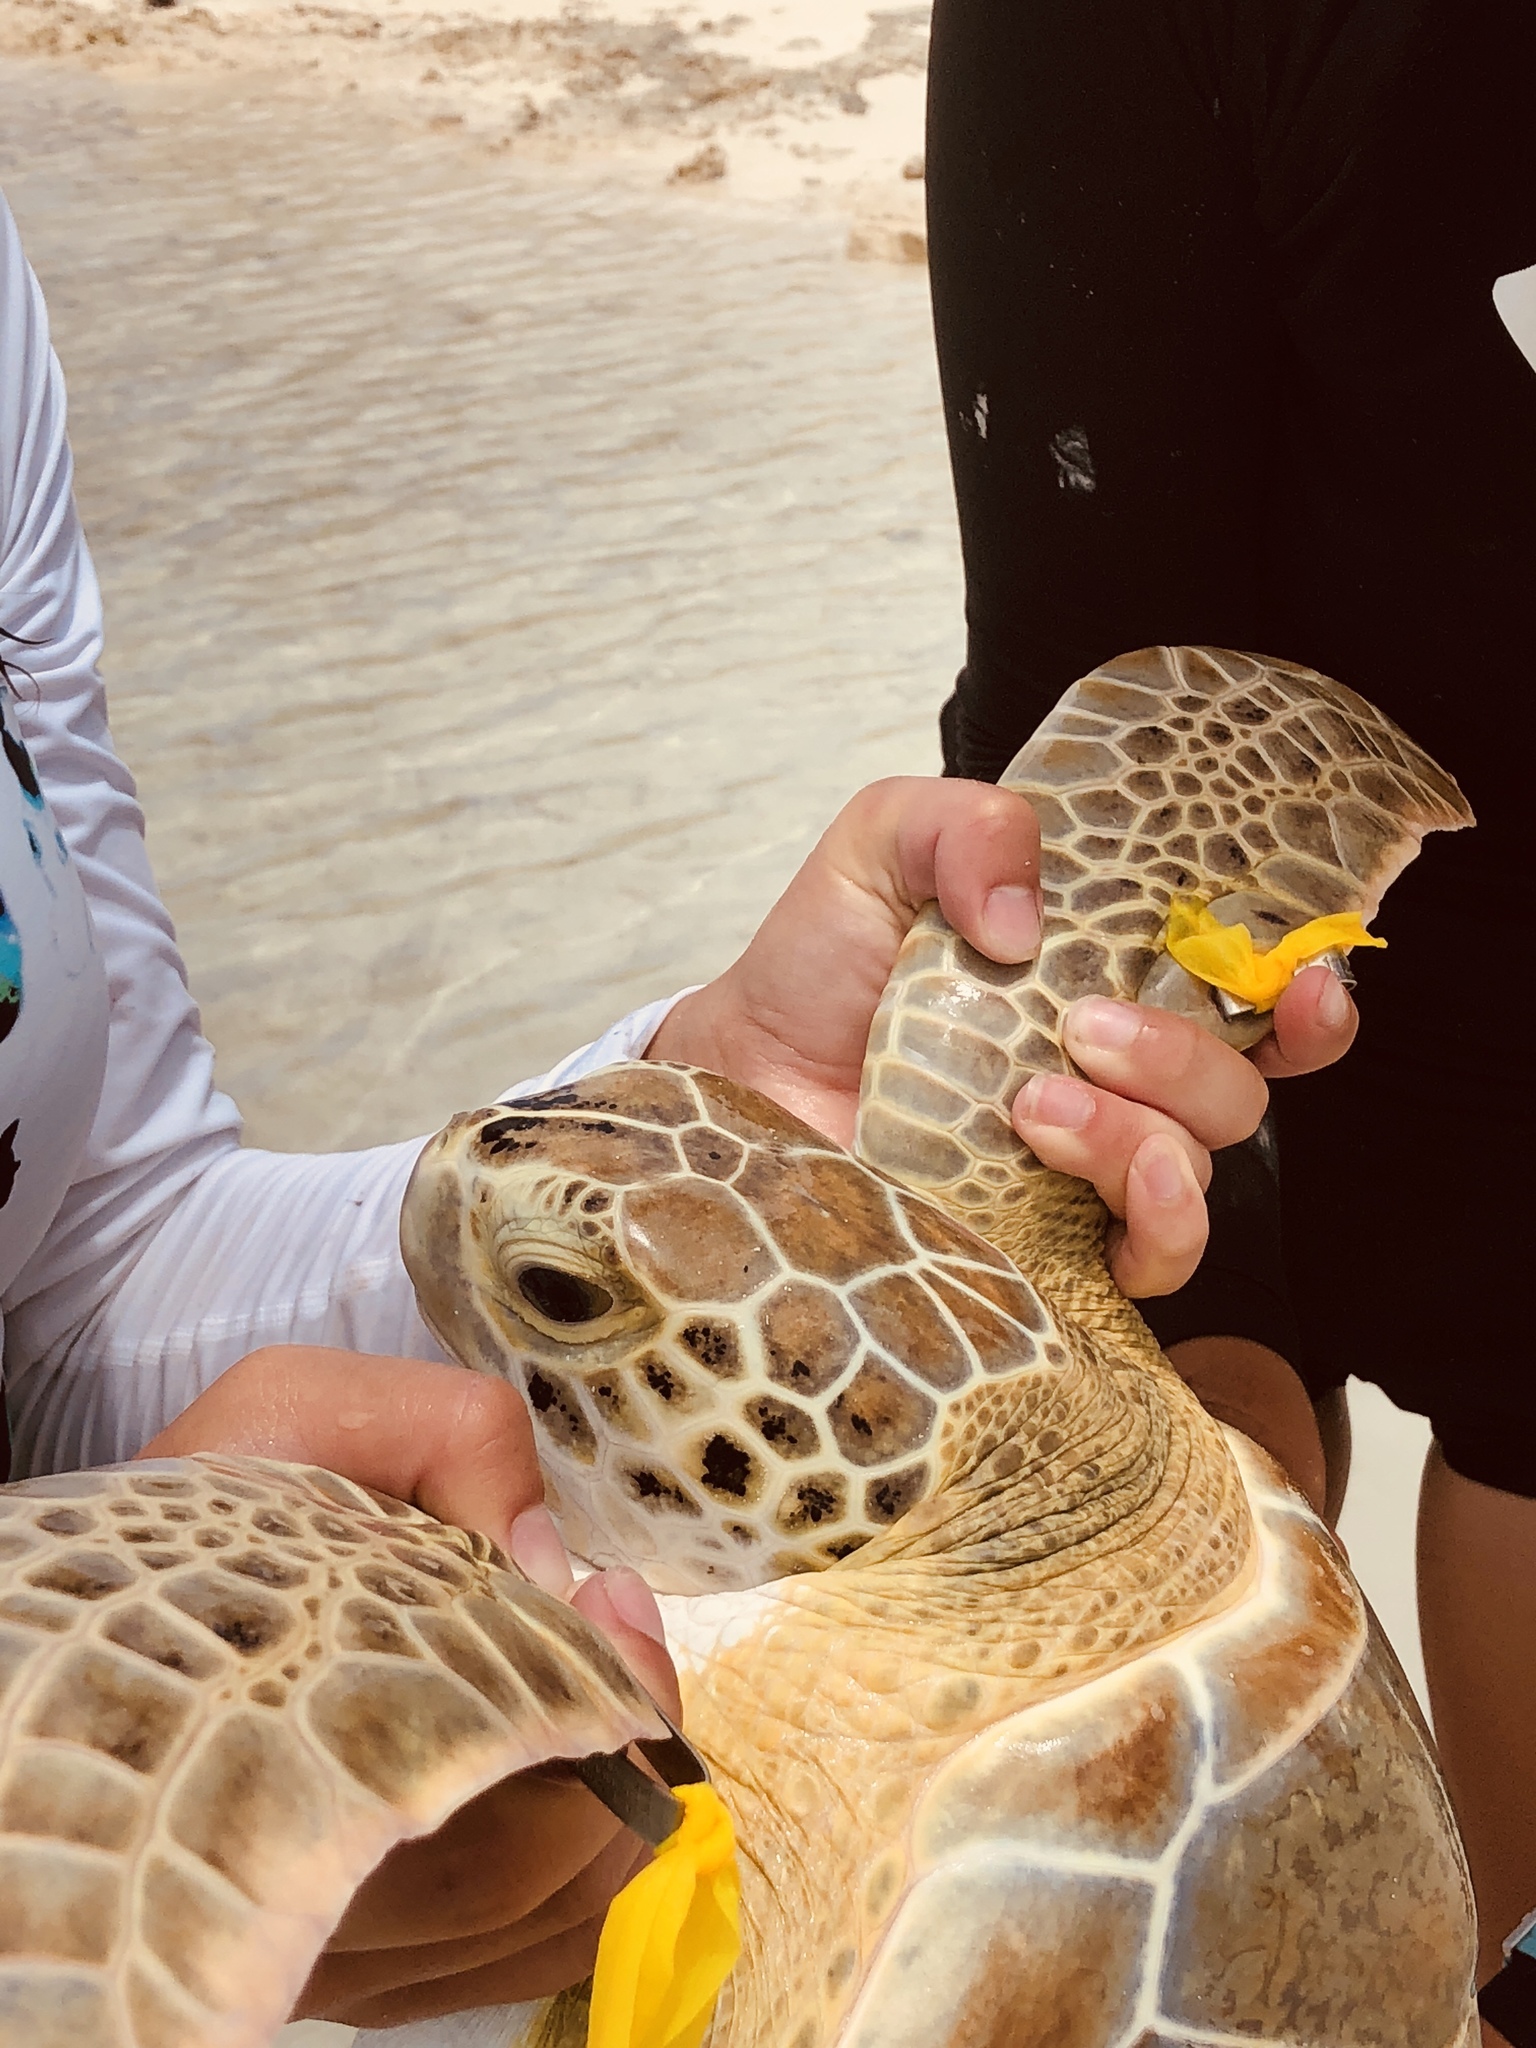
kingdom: Animalia
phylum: Chordata
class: Testudines
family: Cheloniidae
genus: Chelonia
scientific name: Chelonia mydas
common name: Green turtle
